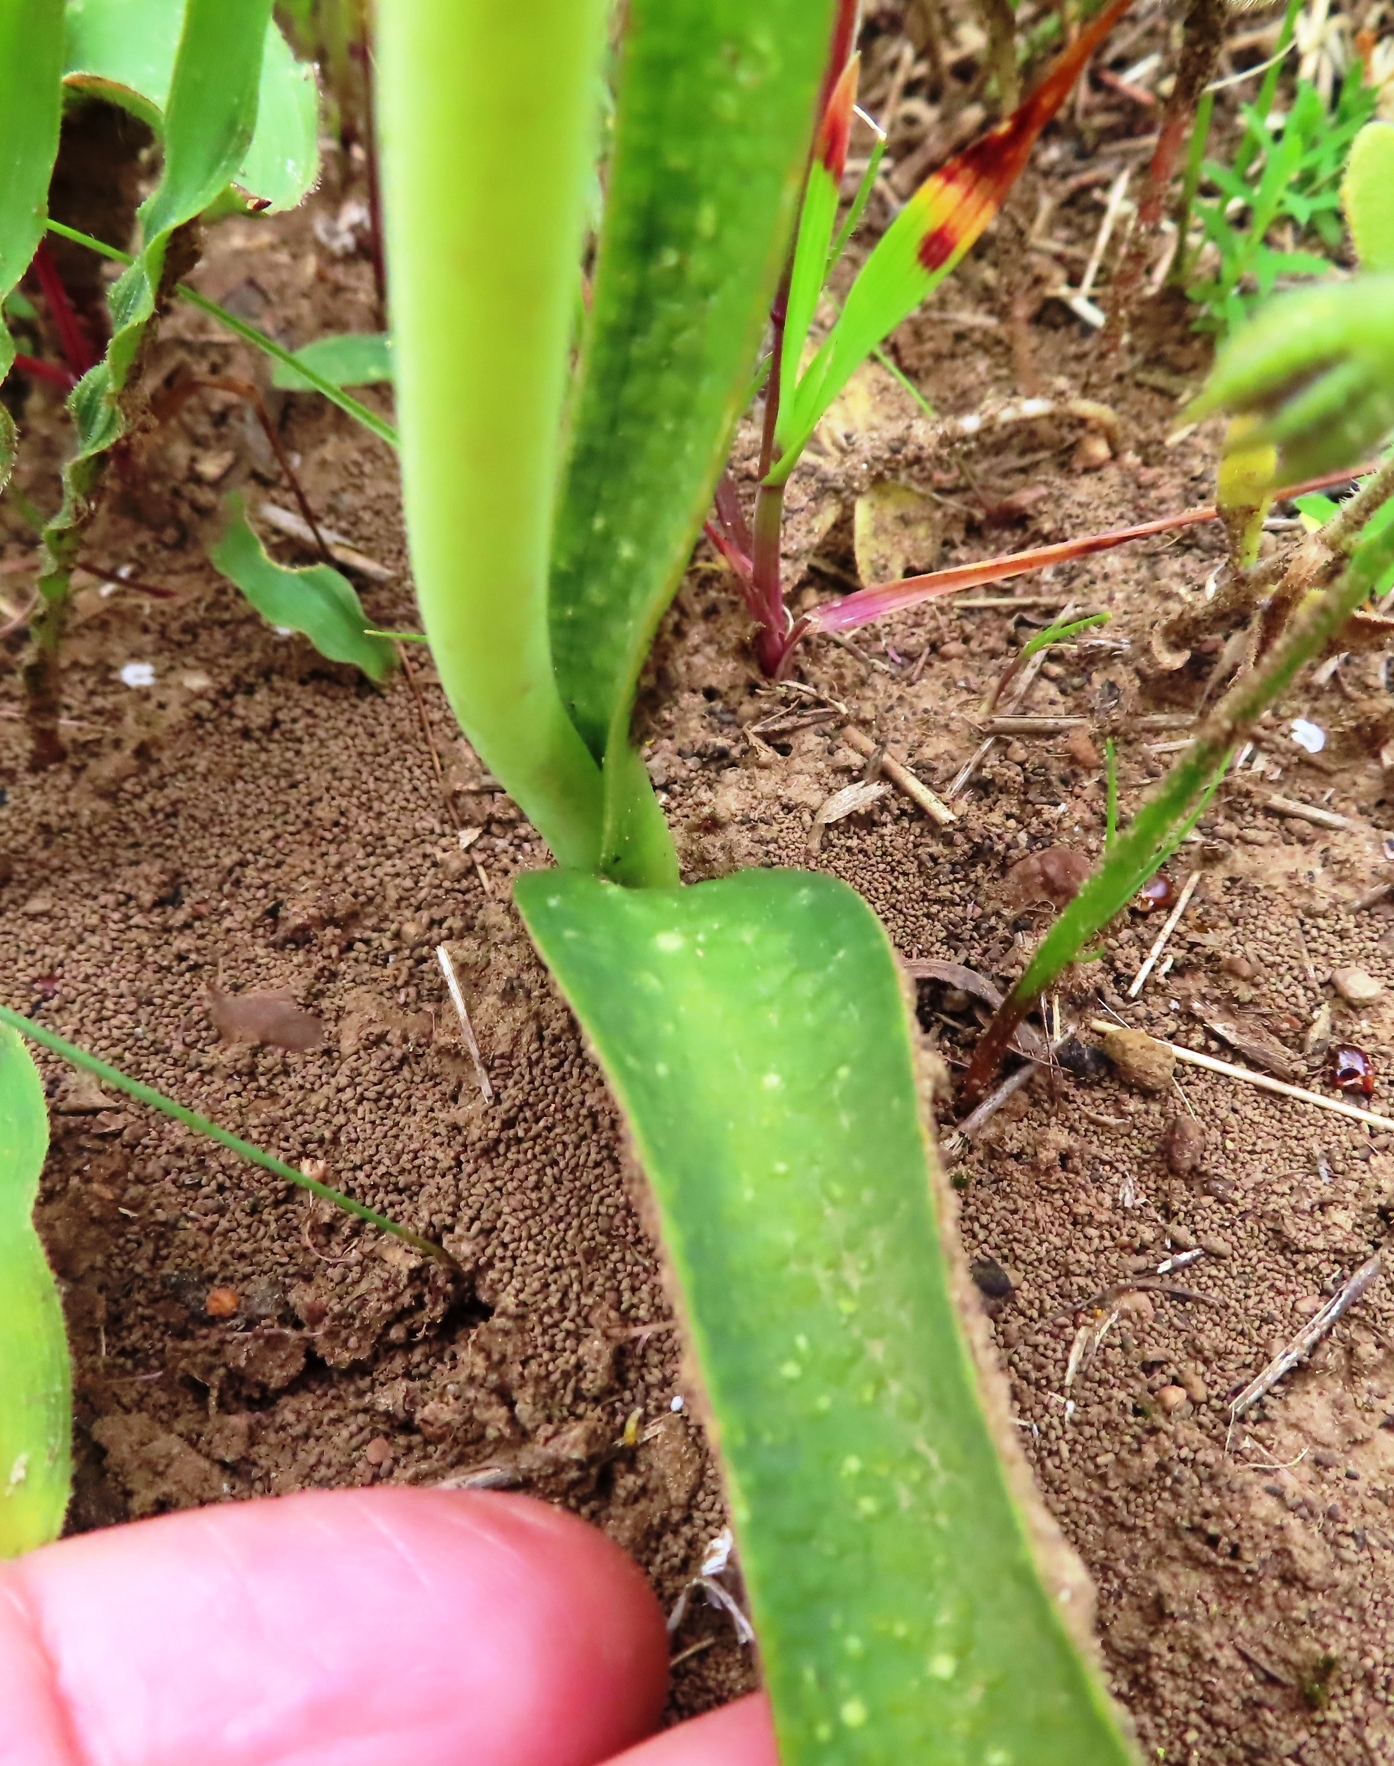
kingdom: Plantae
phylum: Tracheophyta
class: Liliopsida
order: Asparagales
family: Asparagaceae
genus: Lachenalia
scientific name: Lachenalia liliiflora
